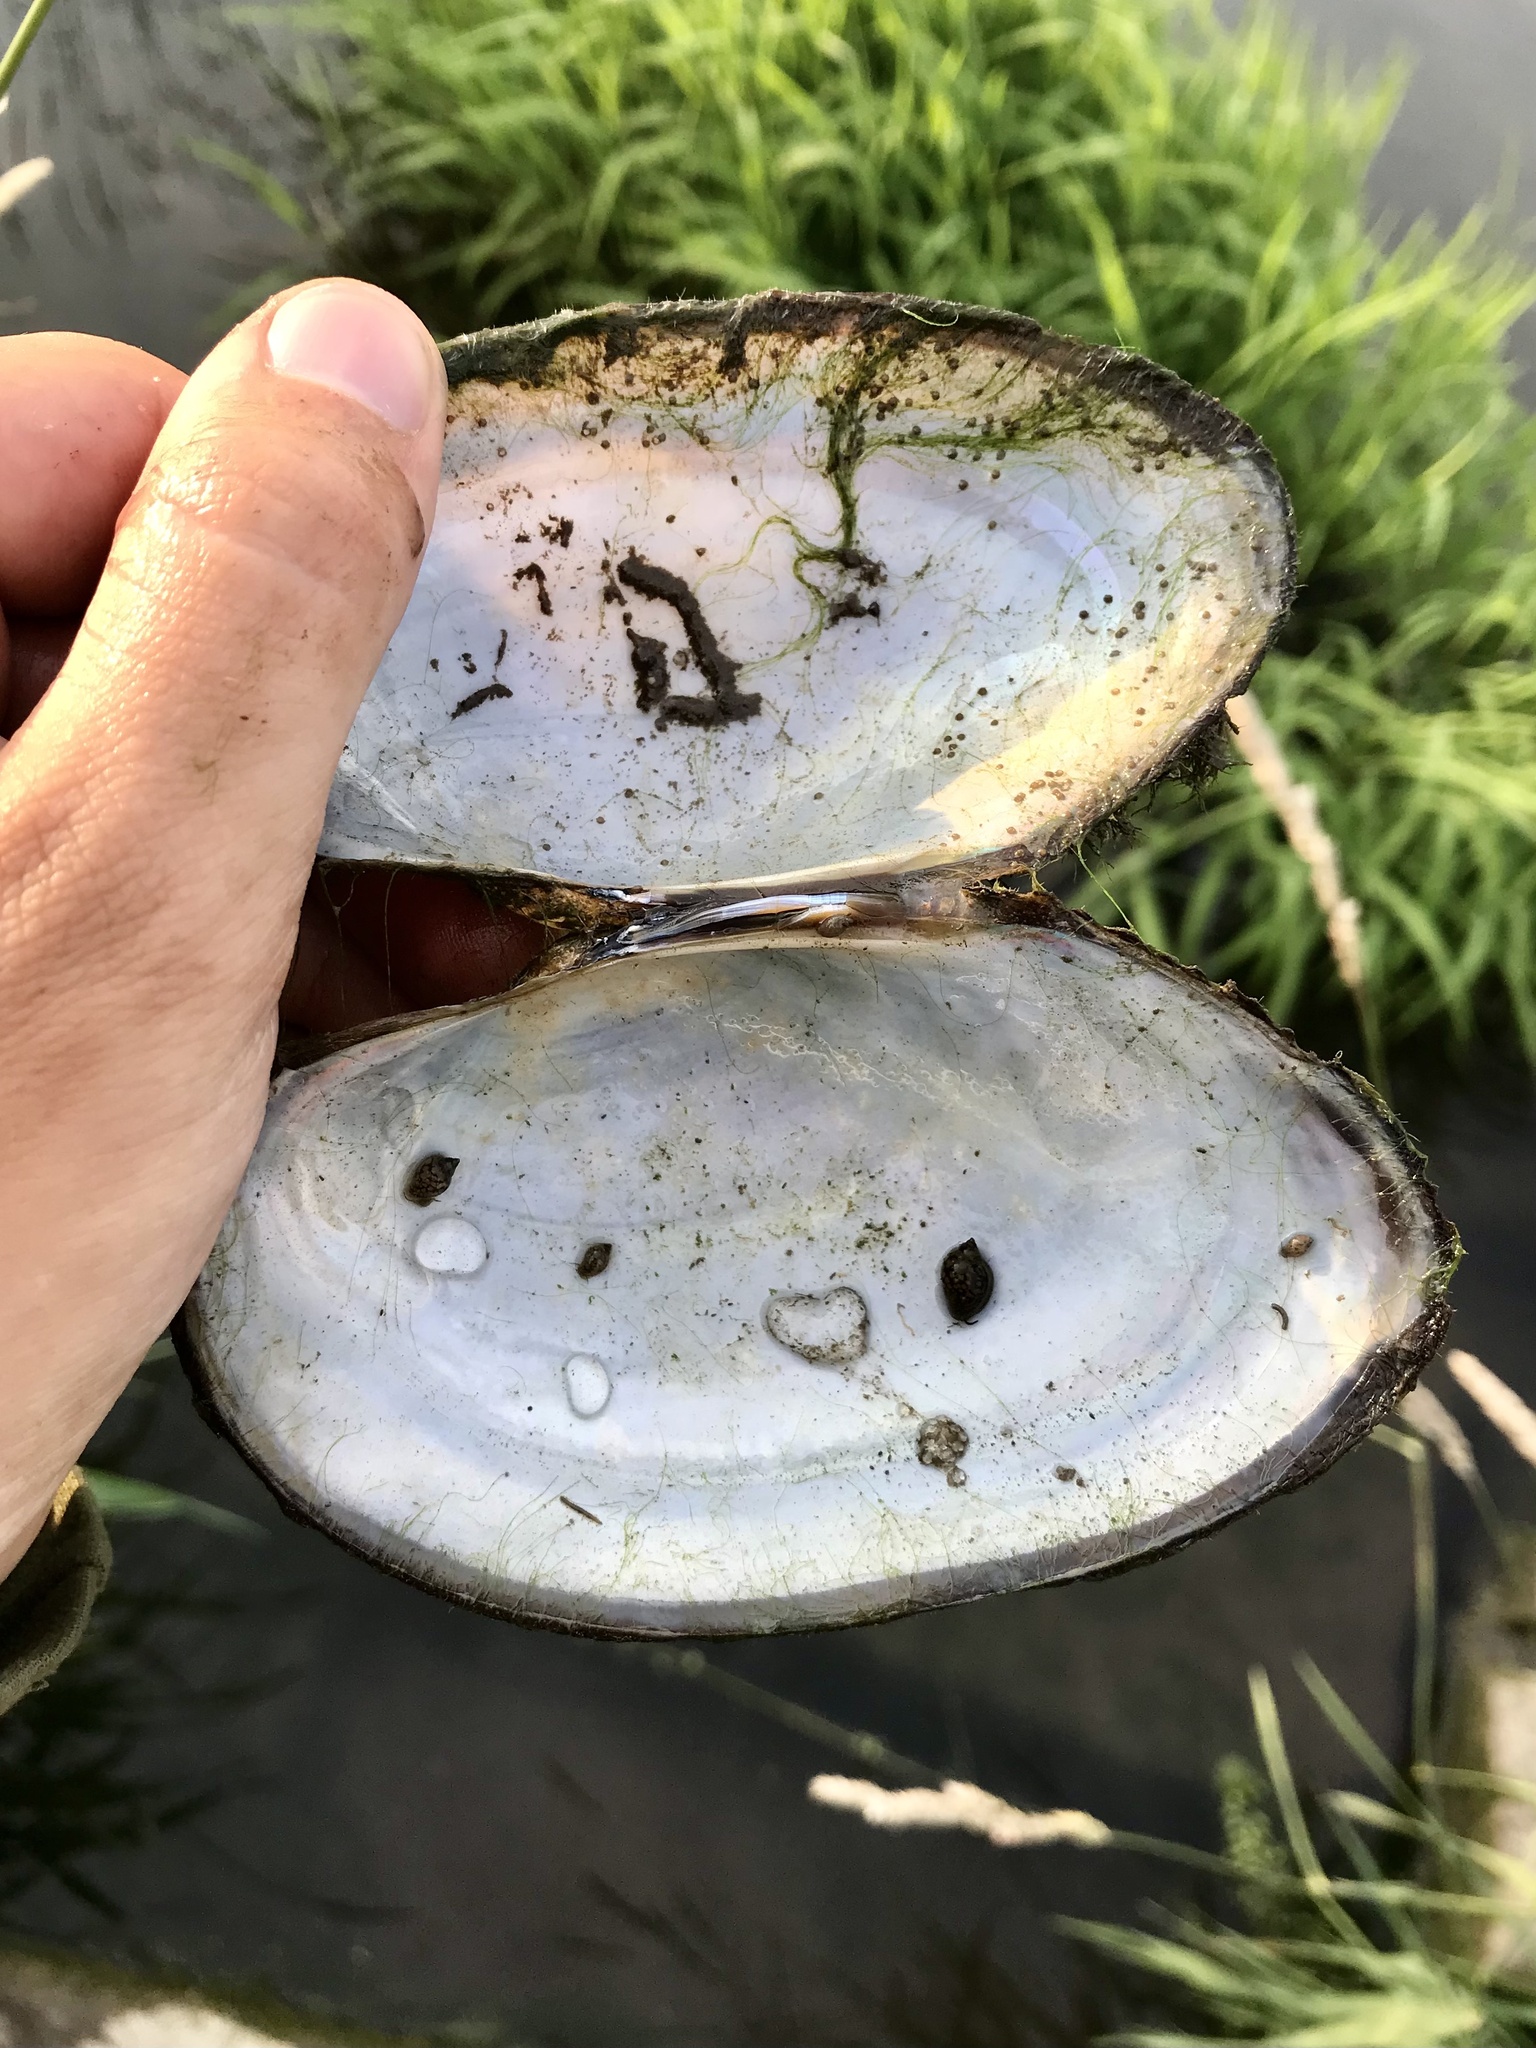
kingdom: Animalia
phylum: Mollusca
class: Bivalvia
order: Unionida
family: Unionidae
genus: Pyganodon
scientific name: Pyganodon grandis
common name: Giant floater
